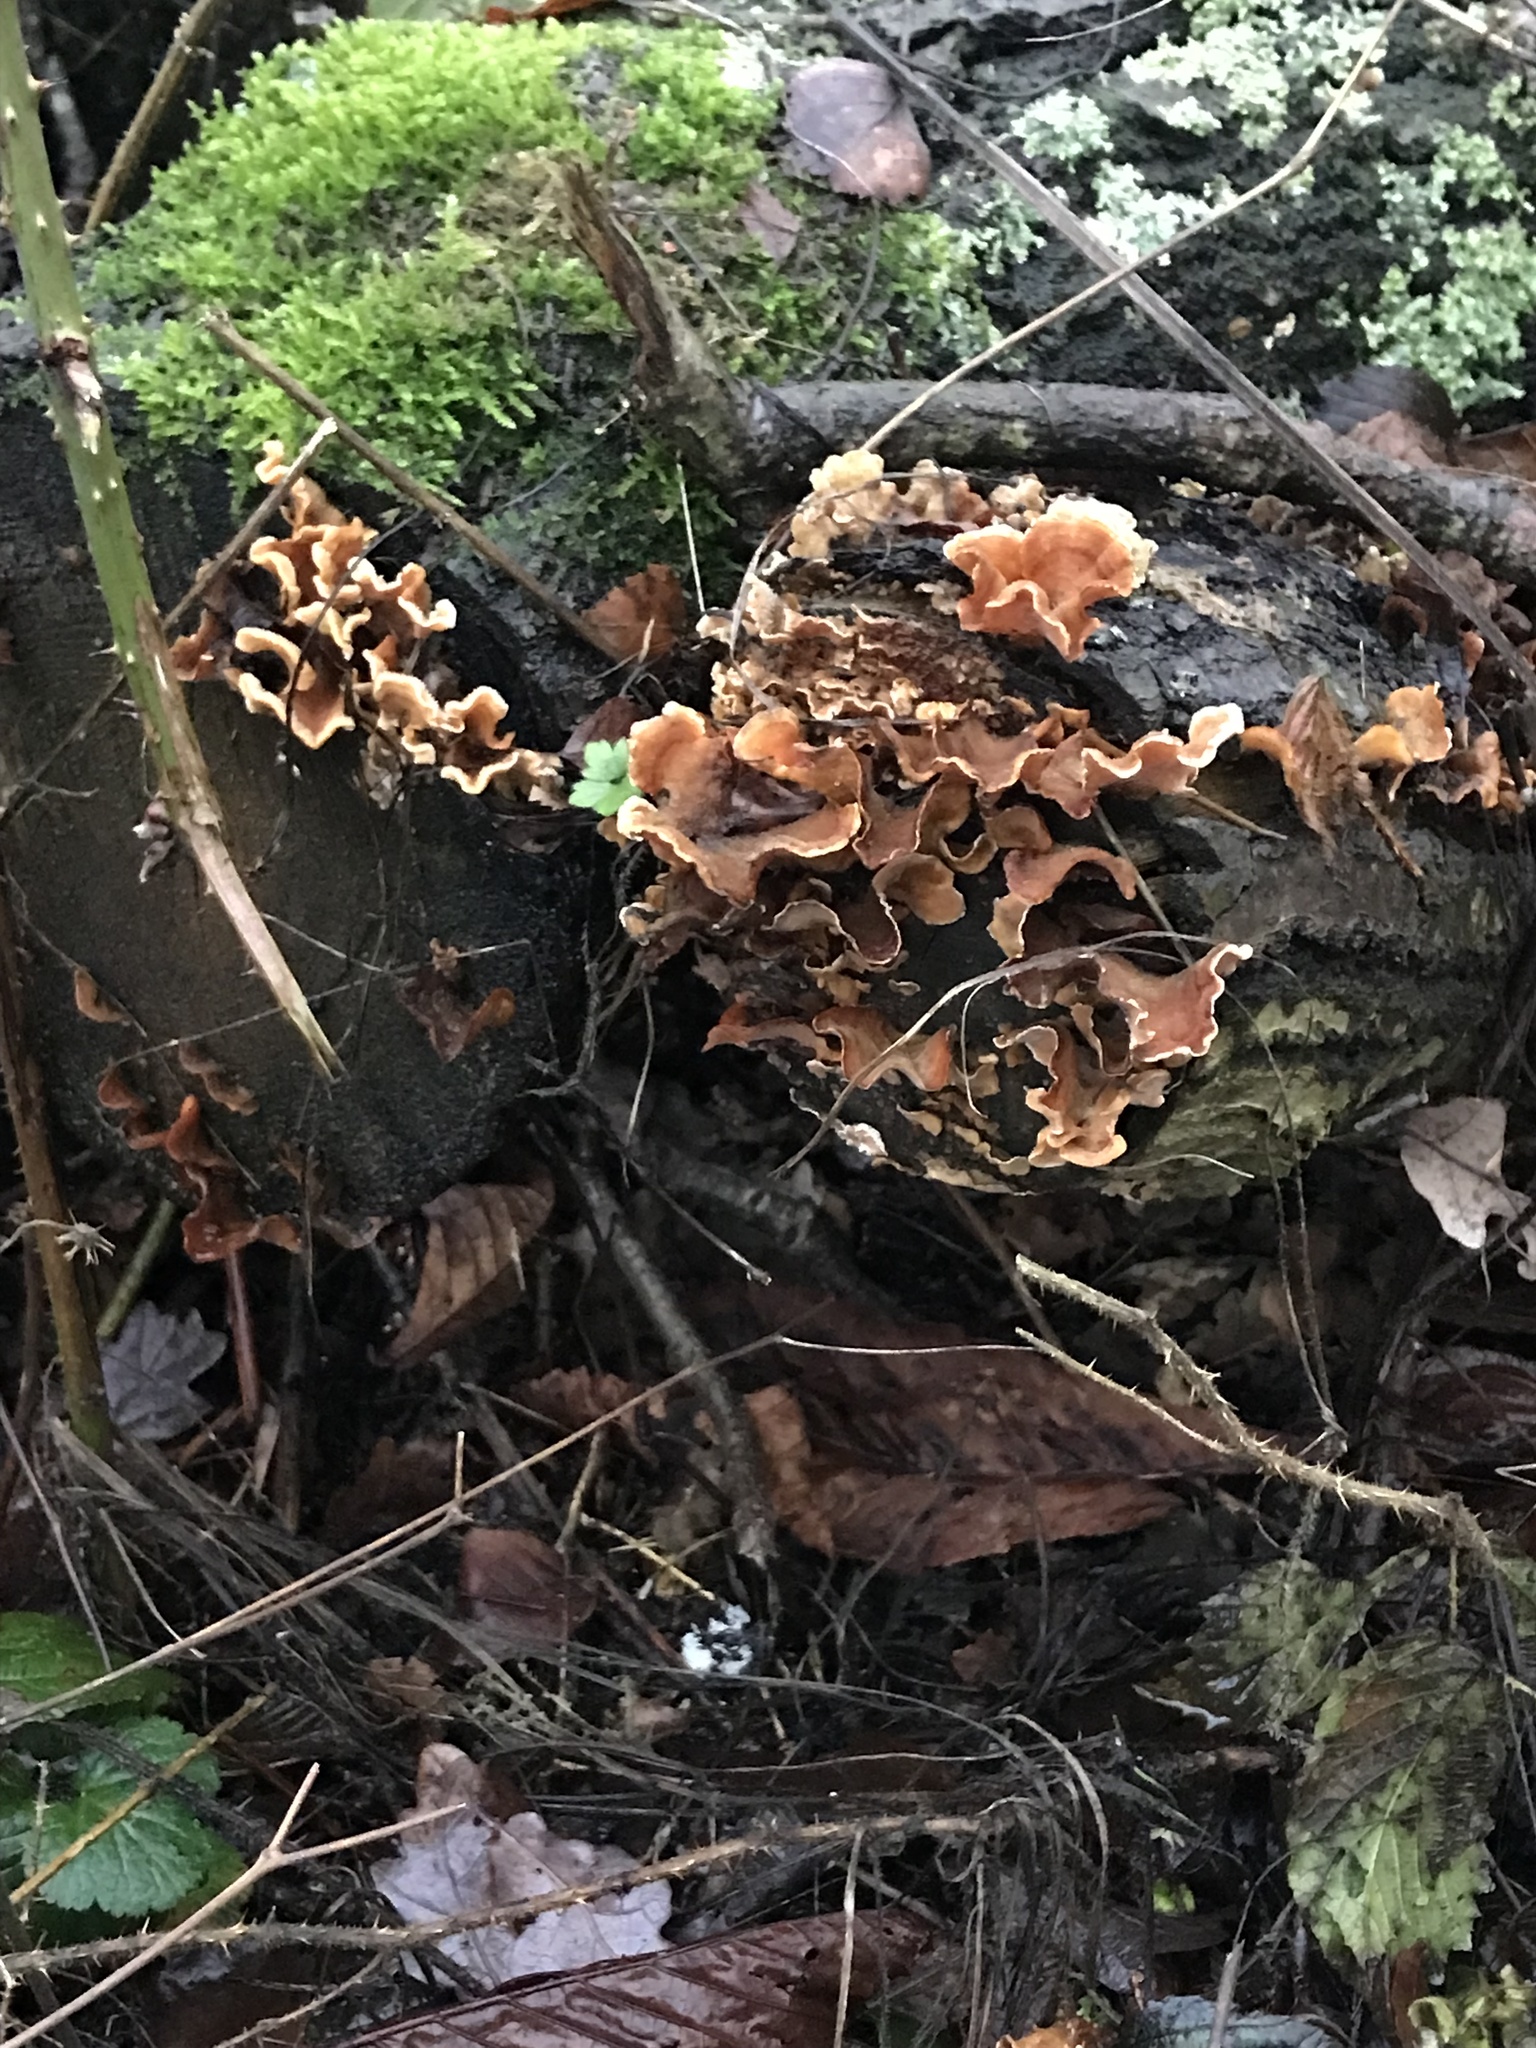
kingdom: Fungi
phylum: Basidiomycota
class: Agaricomycetes
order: Russulales
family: Stereaceae
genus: Stereum
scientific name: Stereum hirsutum
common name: Hairy curtain crust
